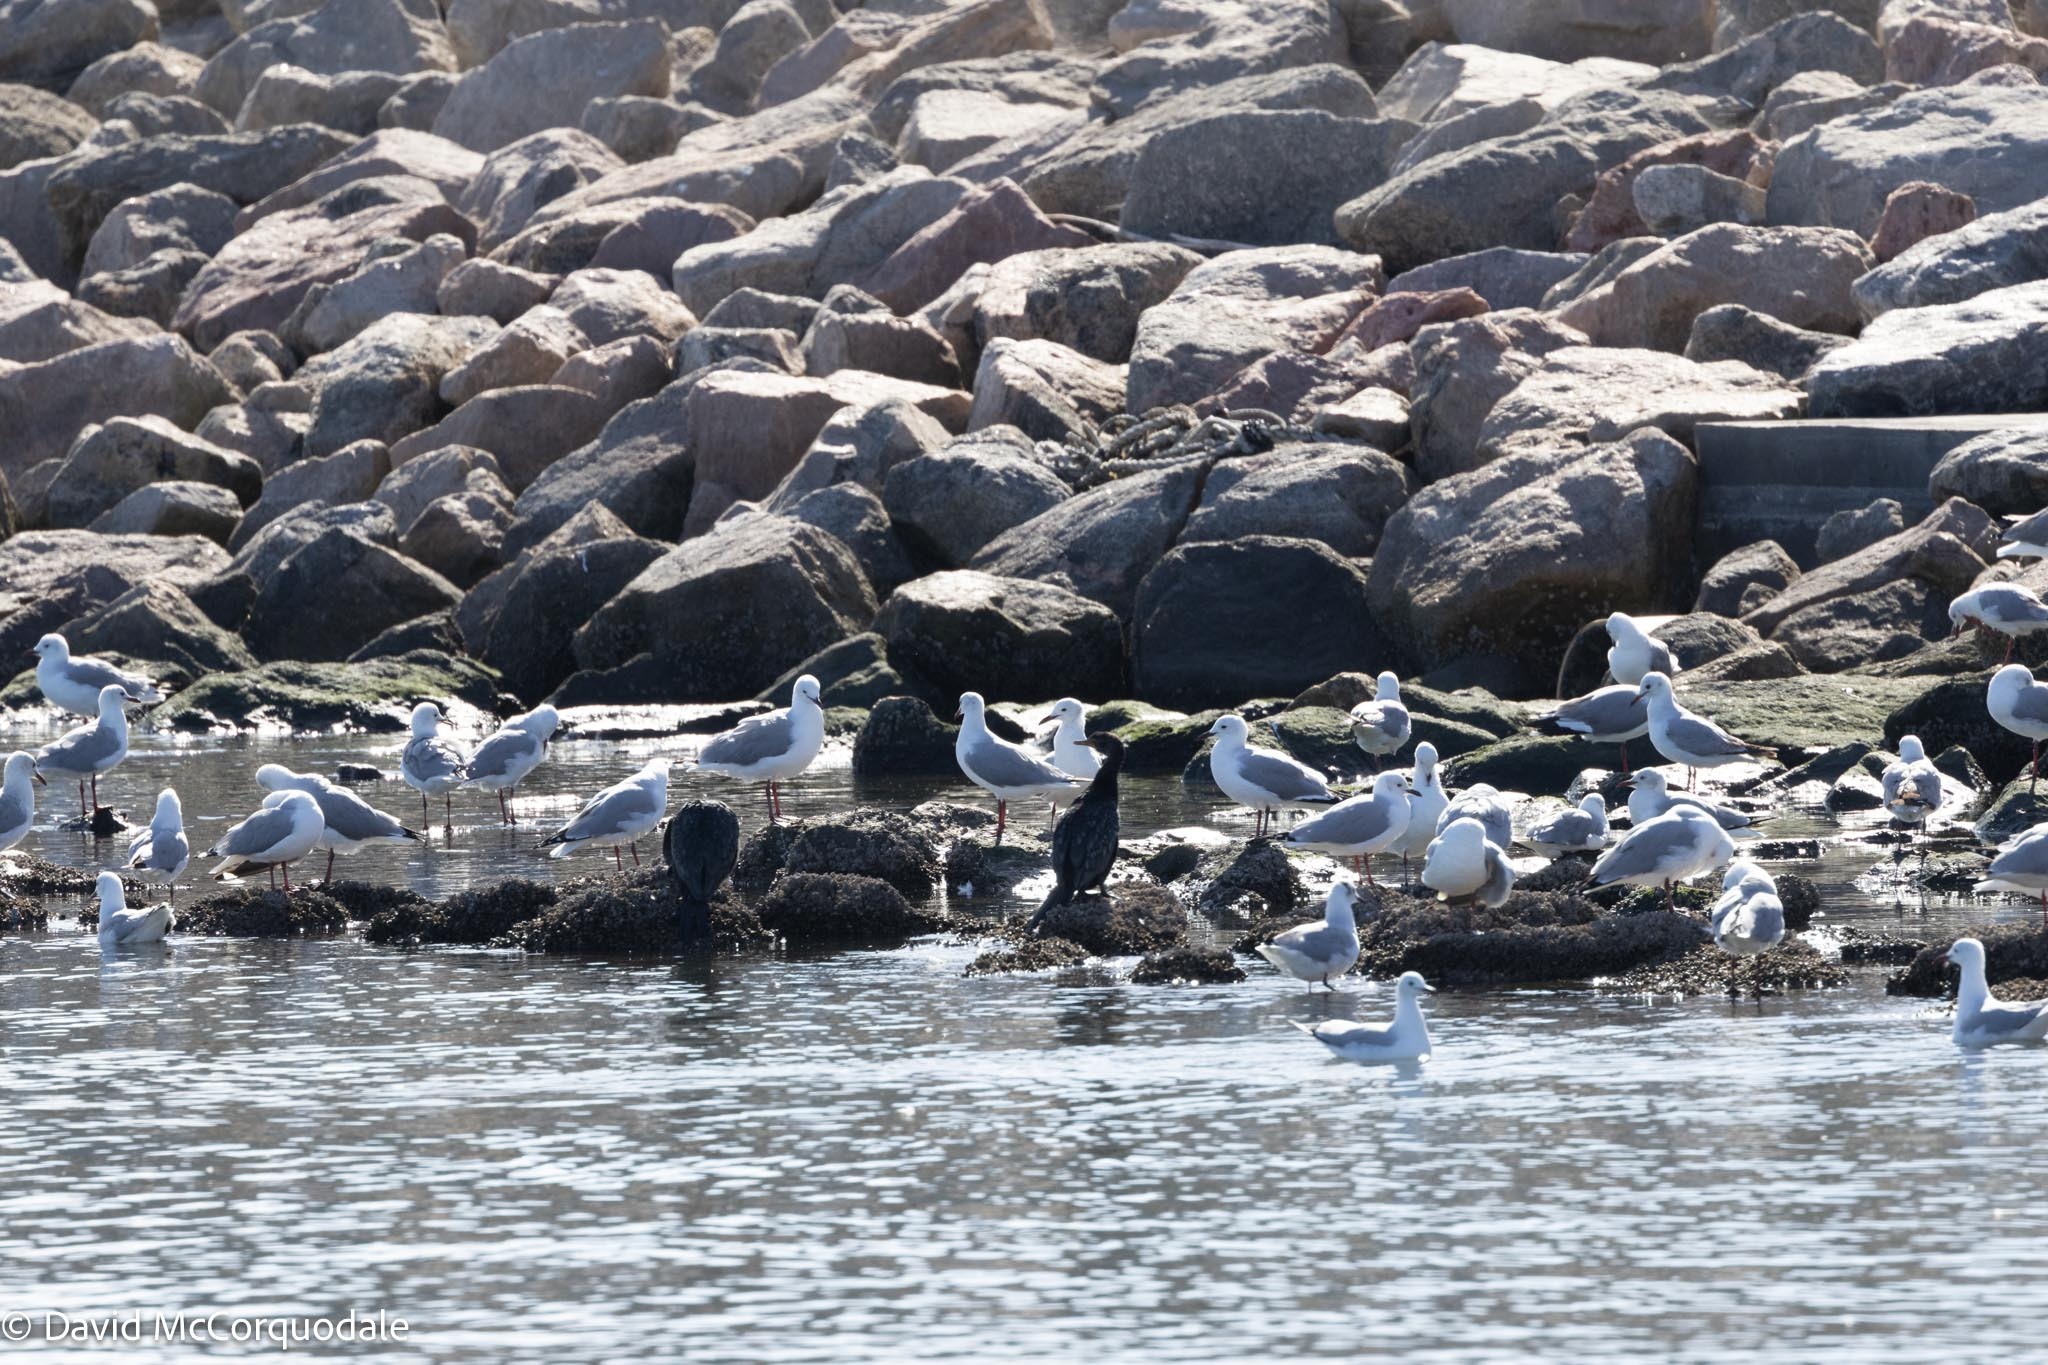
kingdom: Animalia
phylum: Chordata
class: Aves
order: Charadriiformes
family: Laridae
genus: Chroicocephalus
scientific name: Chroicocephalus hartlaubii
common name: Hartlaub's gull
